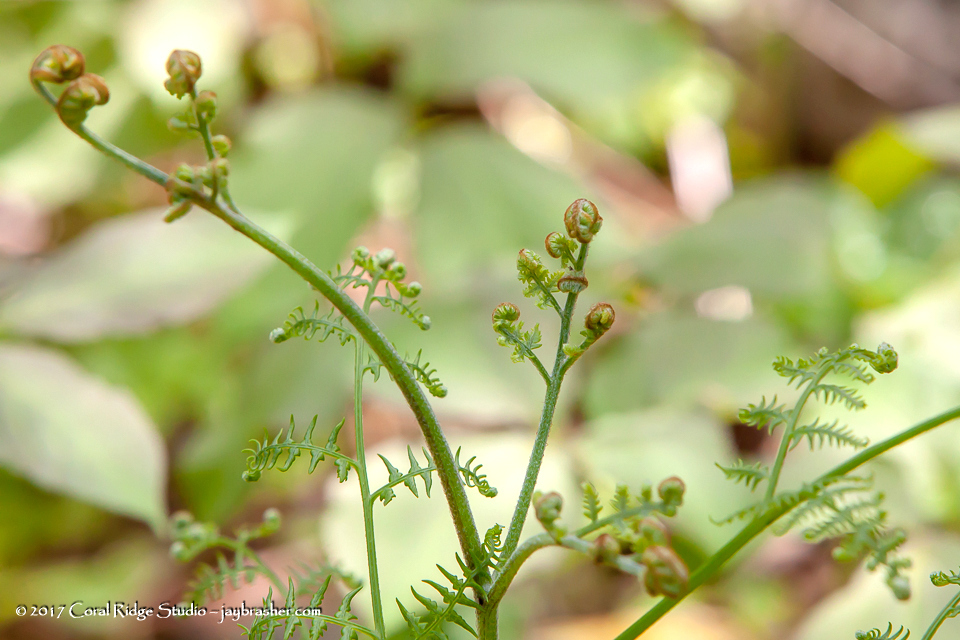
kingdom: Plantae
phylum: Tracheophyta
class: Polypodiopsida
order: Polypodiales
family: Dennstaedtiaceae
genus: Pteridium
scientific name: Pteridium aquilinum
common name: Bracken
